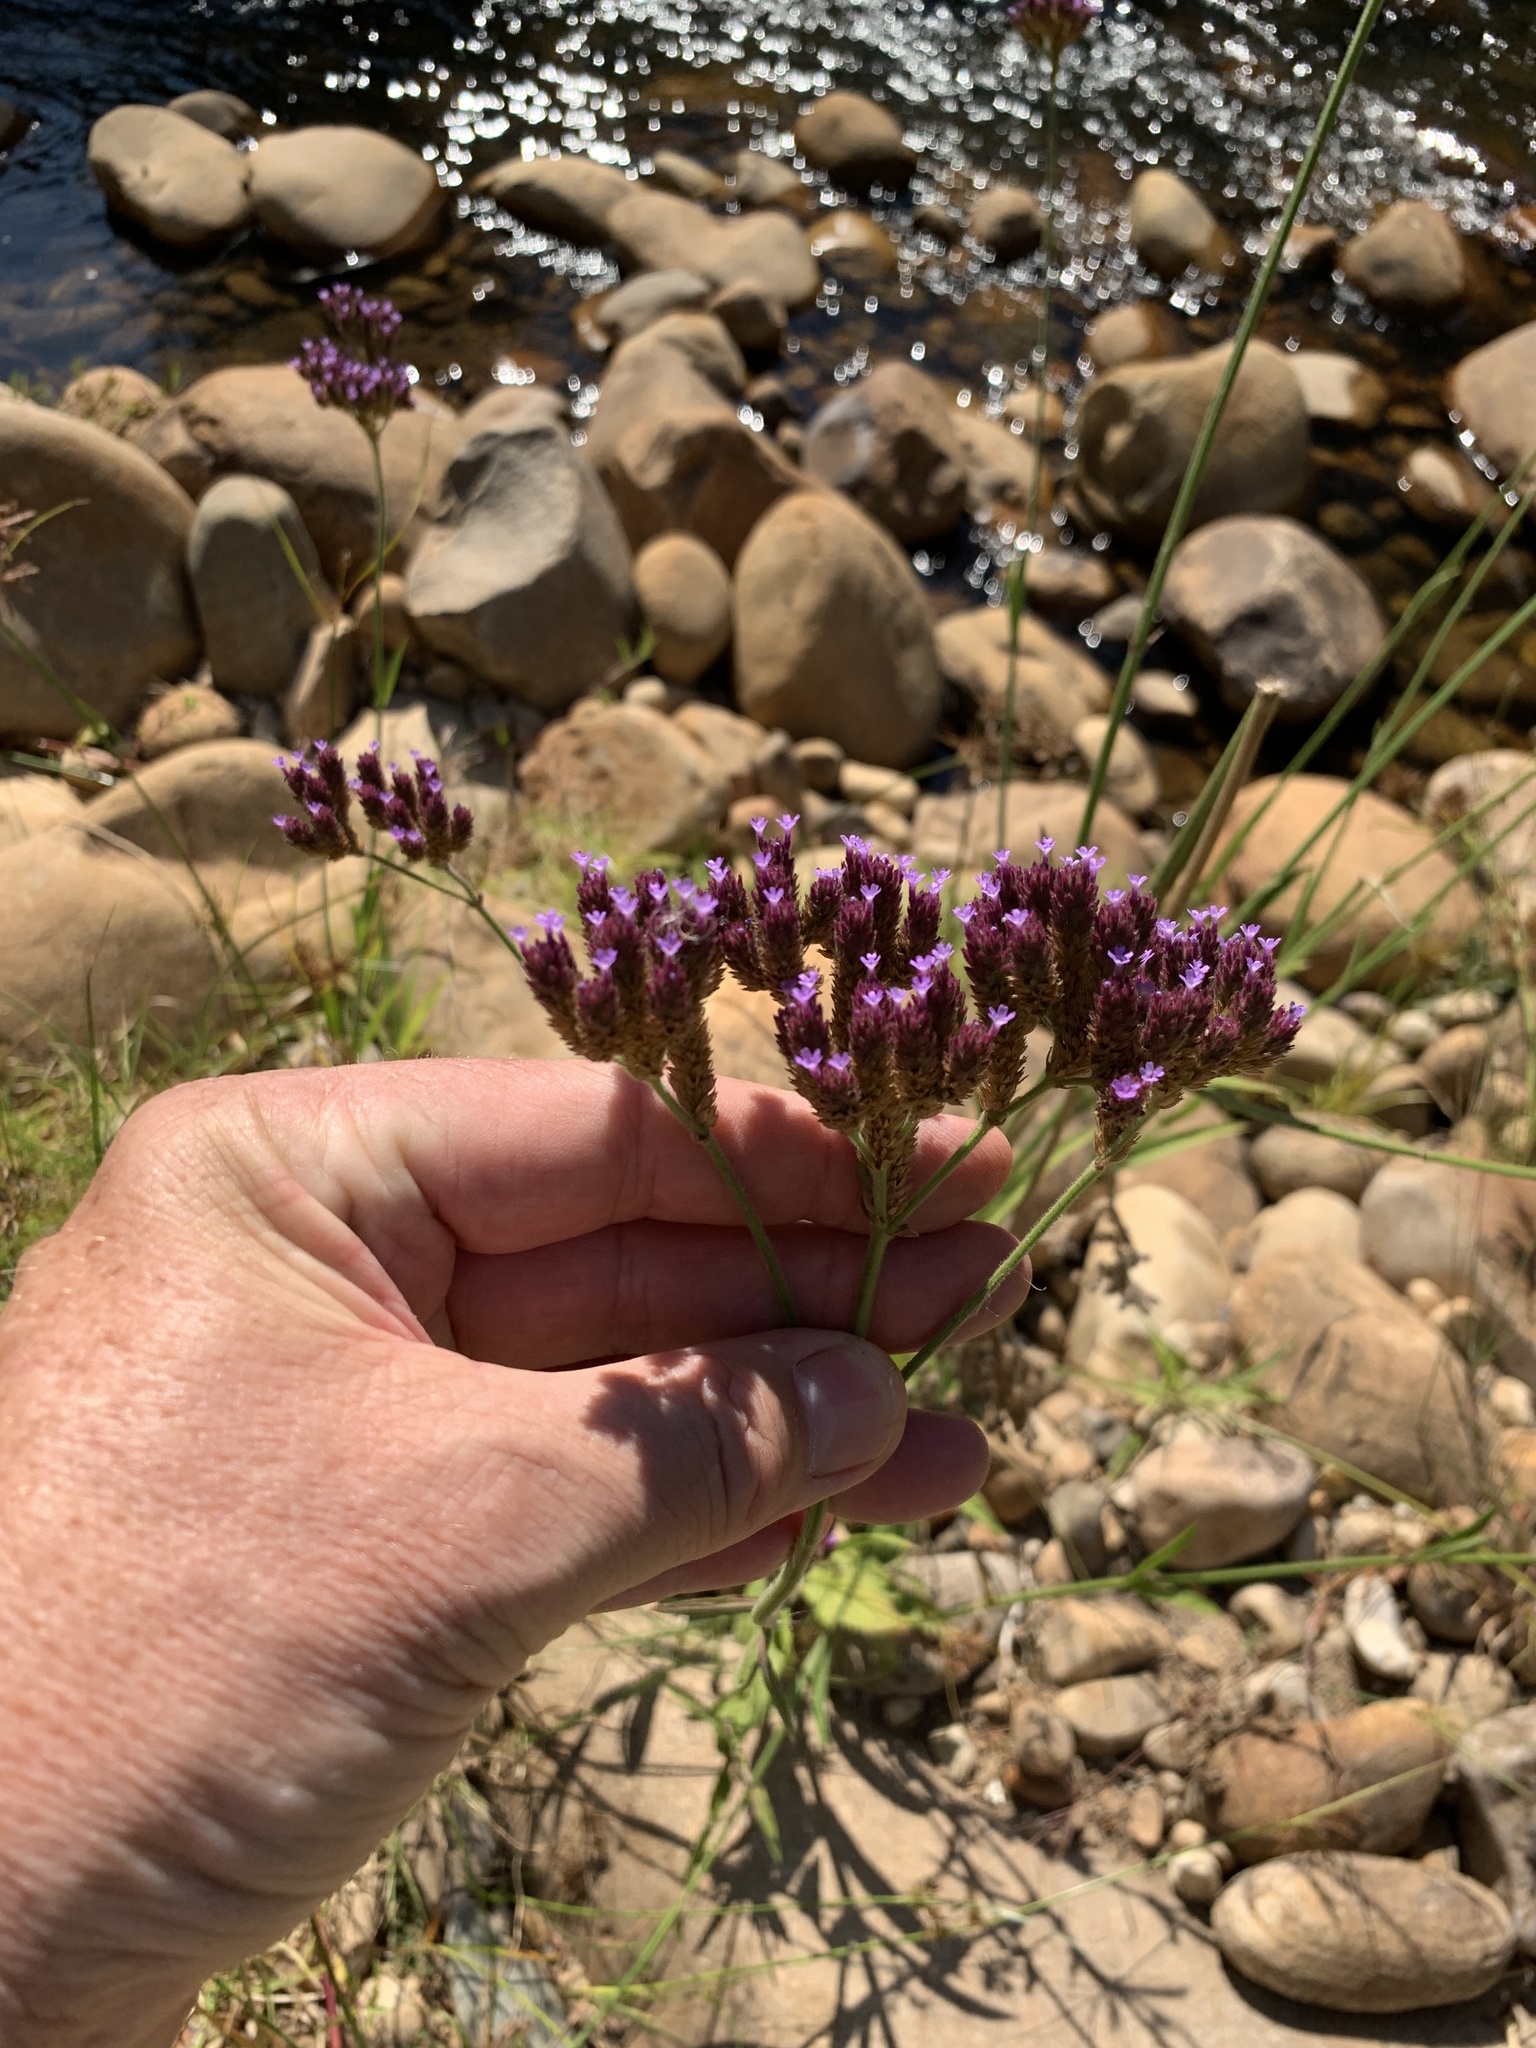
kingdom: Plantae
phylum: Tracheophyta
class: Magnoliopsida
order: Lamiales
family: Verbenaceae
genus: Verbena
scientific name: Verbena bonariensis
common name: Purpletop vervain
